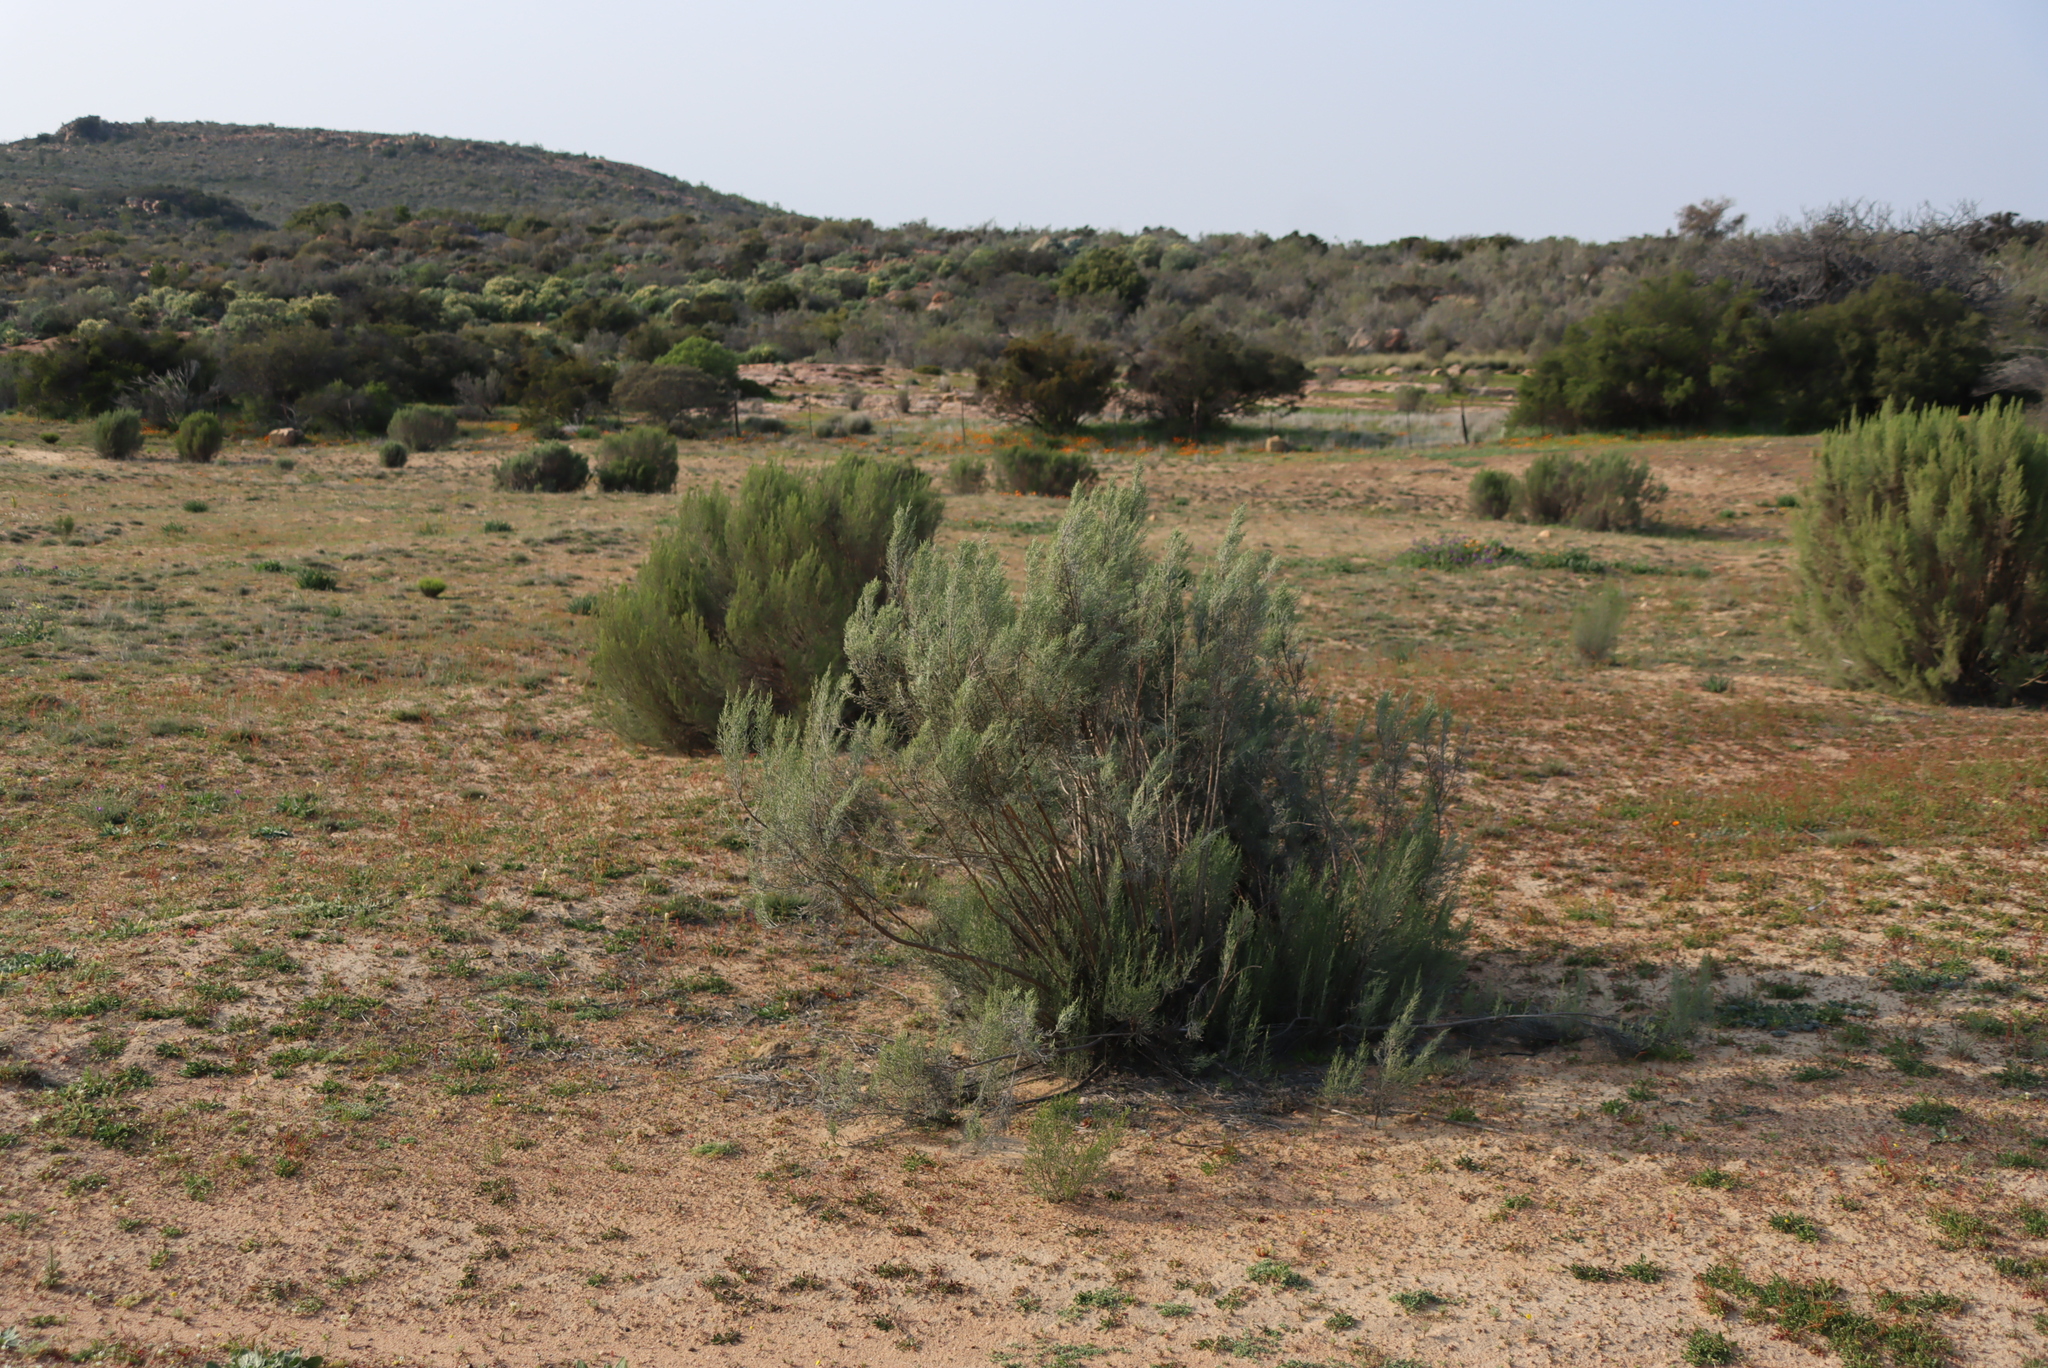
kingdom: Plantae
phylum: Tracheophyta
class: Magnoliopsida
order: Asterales
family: Asteraceae
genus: Dicerothamnus
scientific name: Dicerothamnus rhinocerotis
